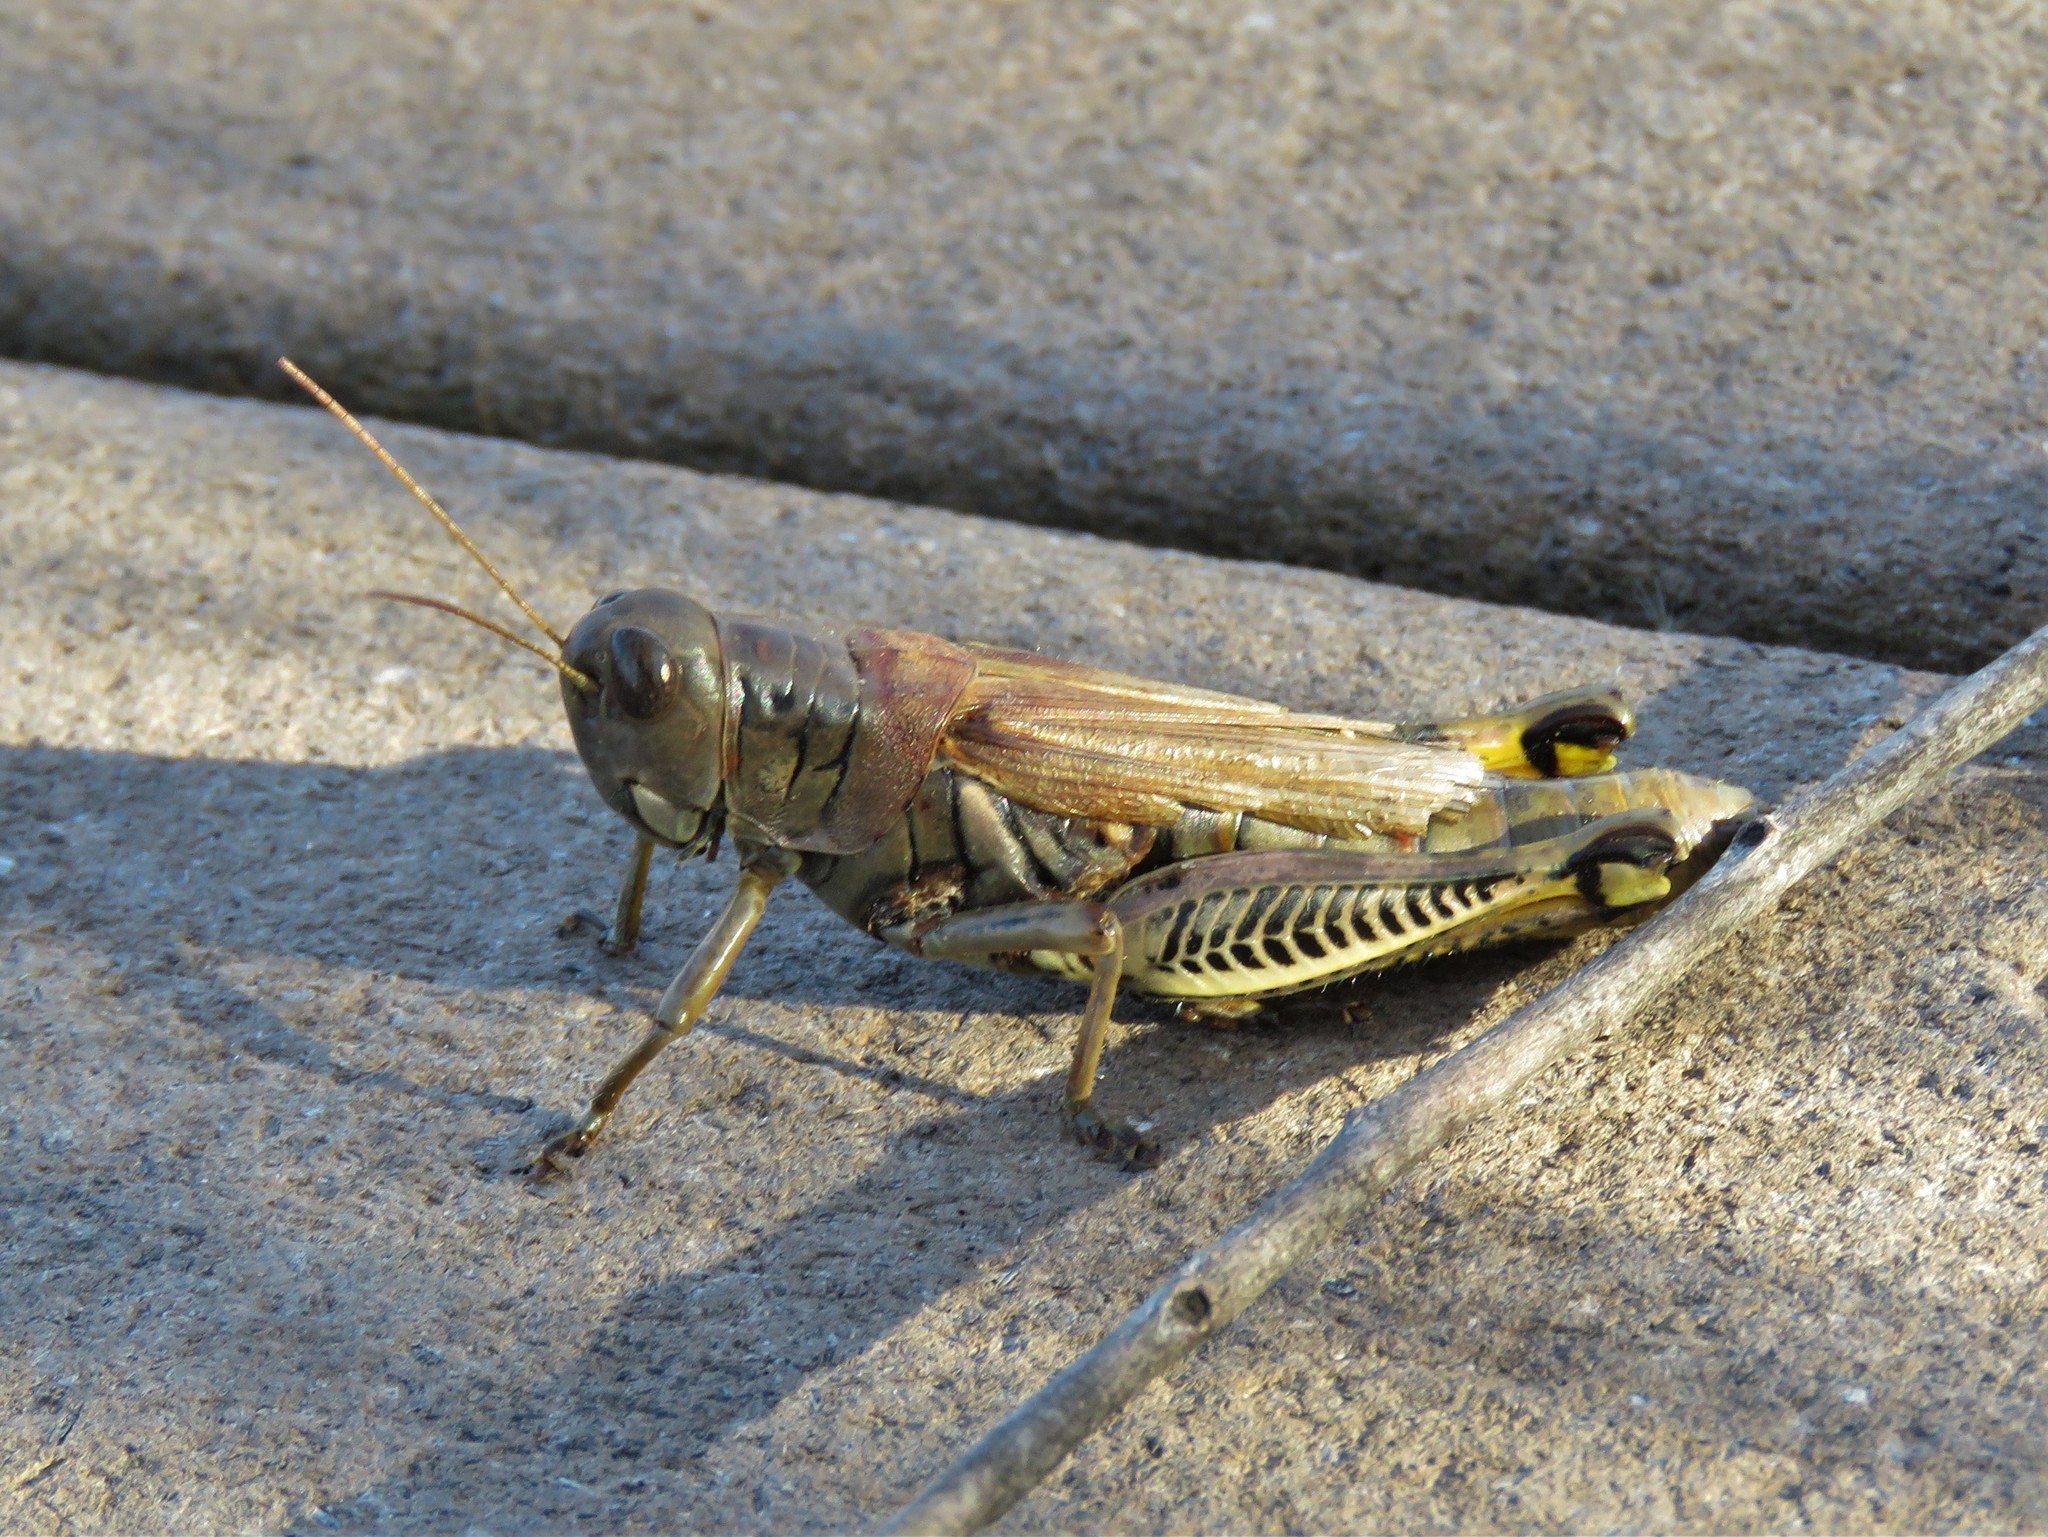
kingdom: Animalia
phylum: Arthropoda
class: Insecta
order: Orthoptera
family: Acrididae
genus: Melanoplus
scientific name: Melanoplus differentialis
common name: Differential grasshopper
